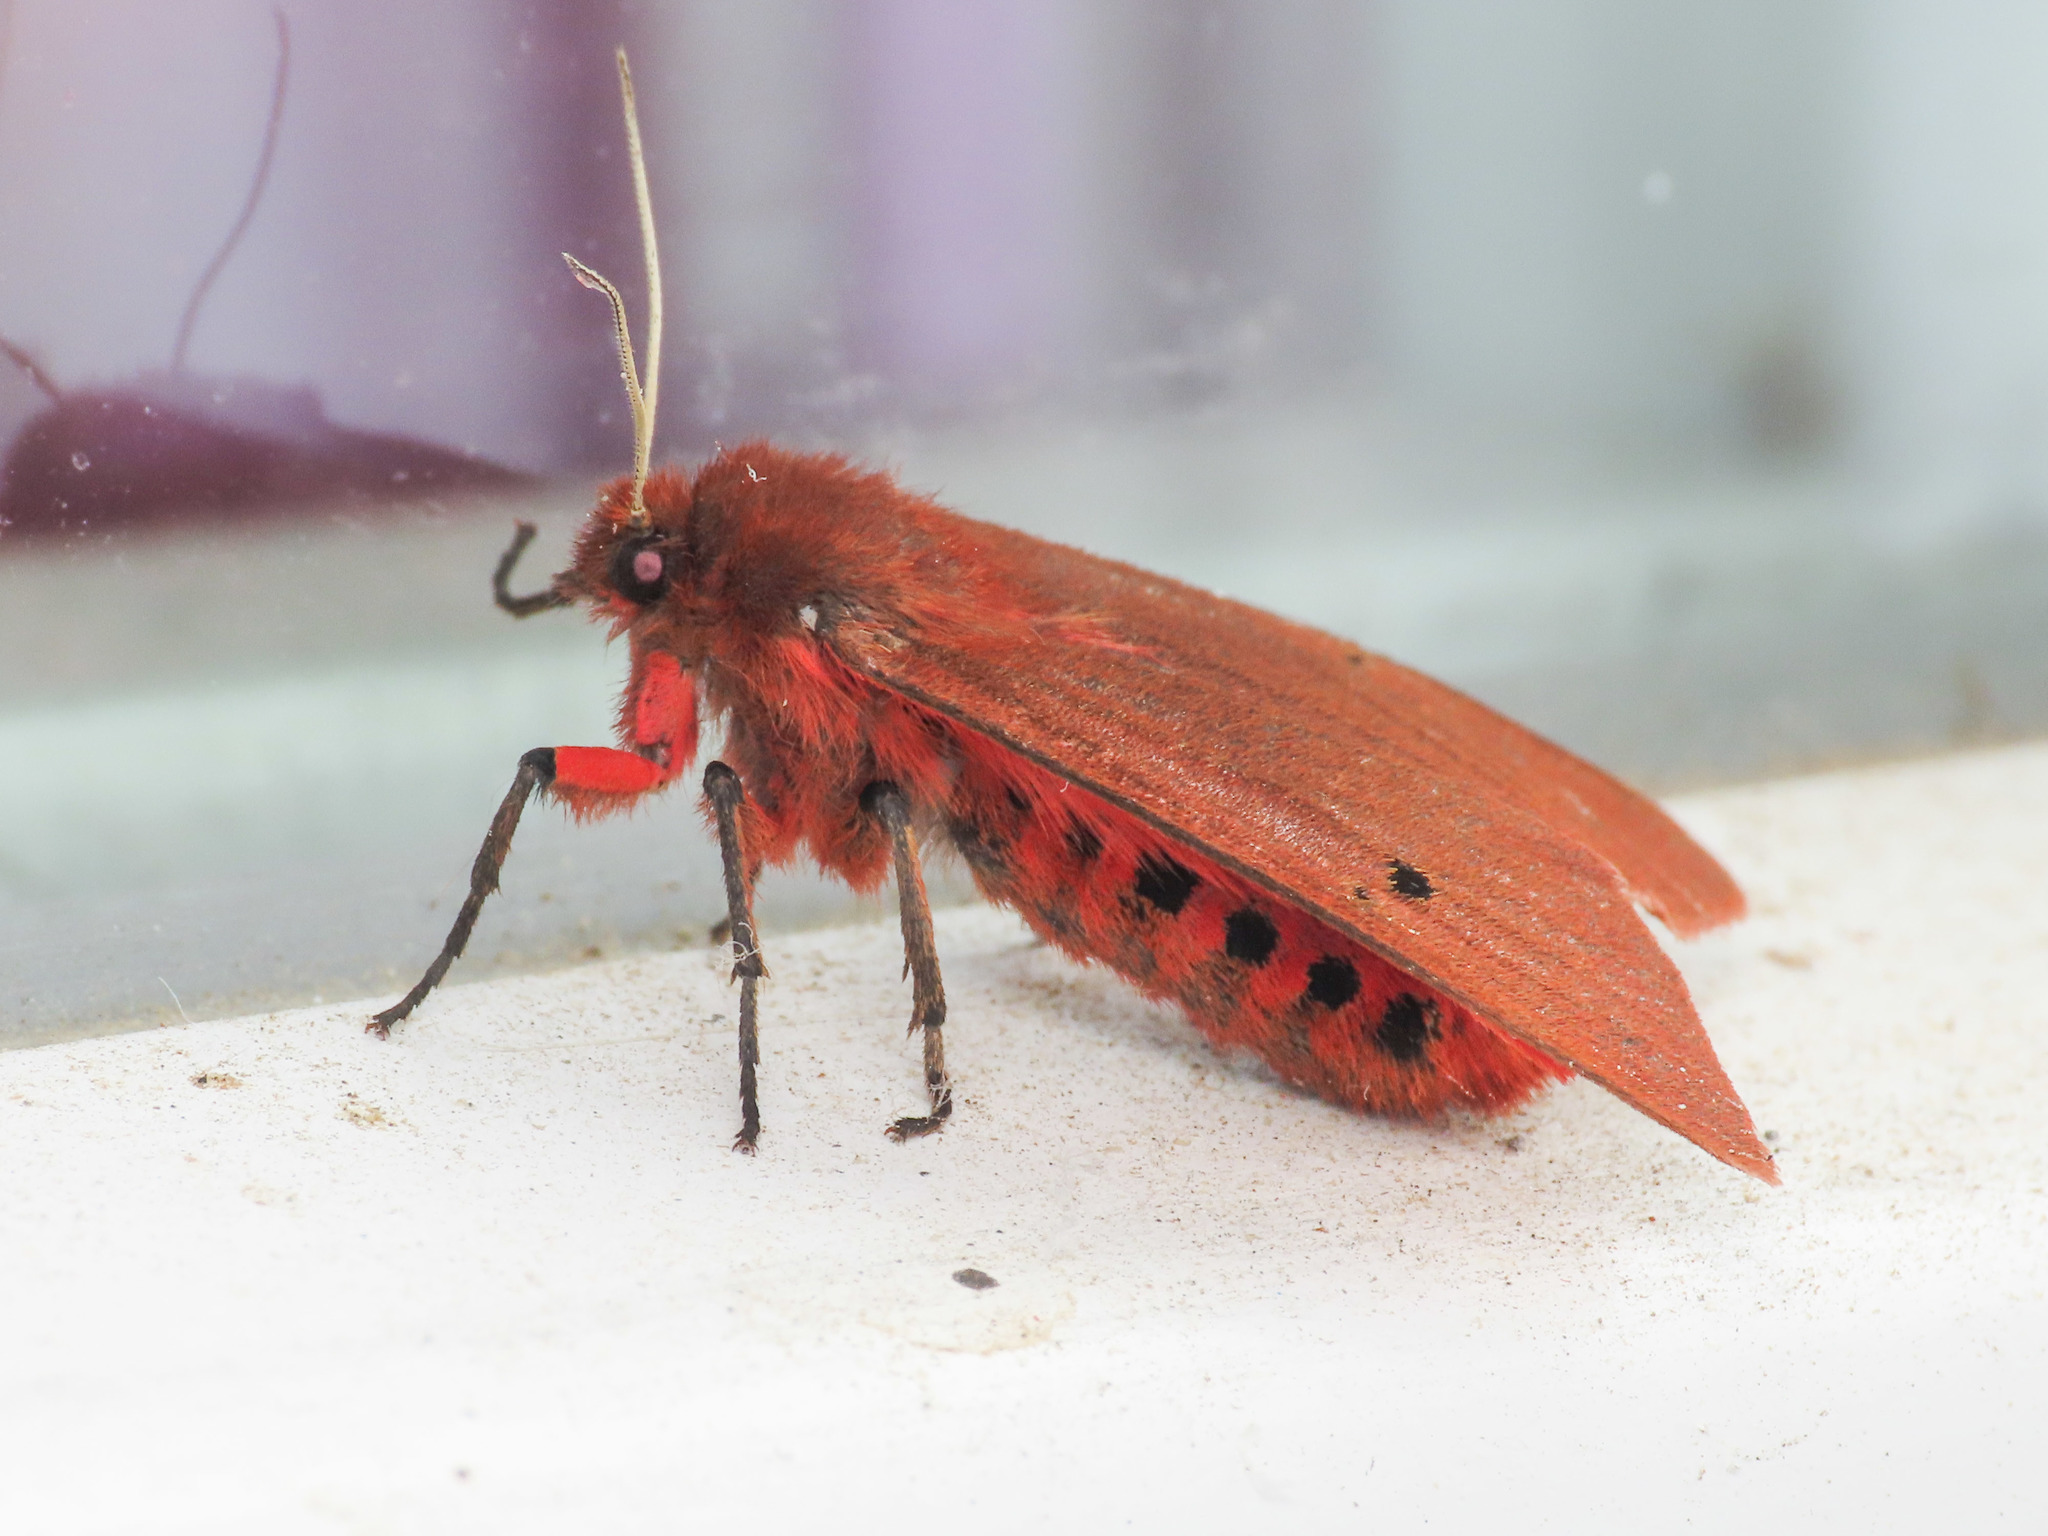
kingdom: Animalia
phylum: Arthropoda
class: Insecta
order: Lepidoptera
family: Erebidae
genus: Phragmatobia
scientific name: Phragmatobia fuliginosa
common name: Ruby tiger
